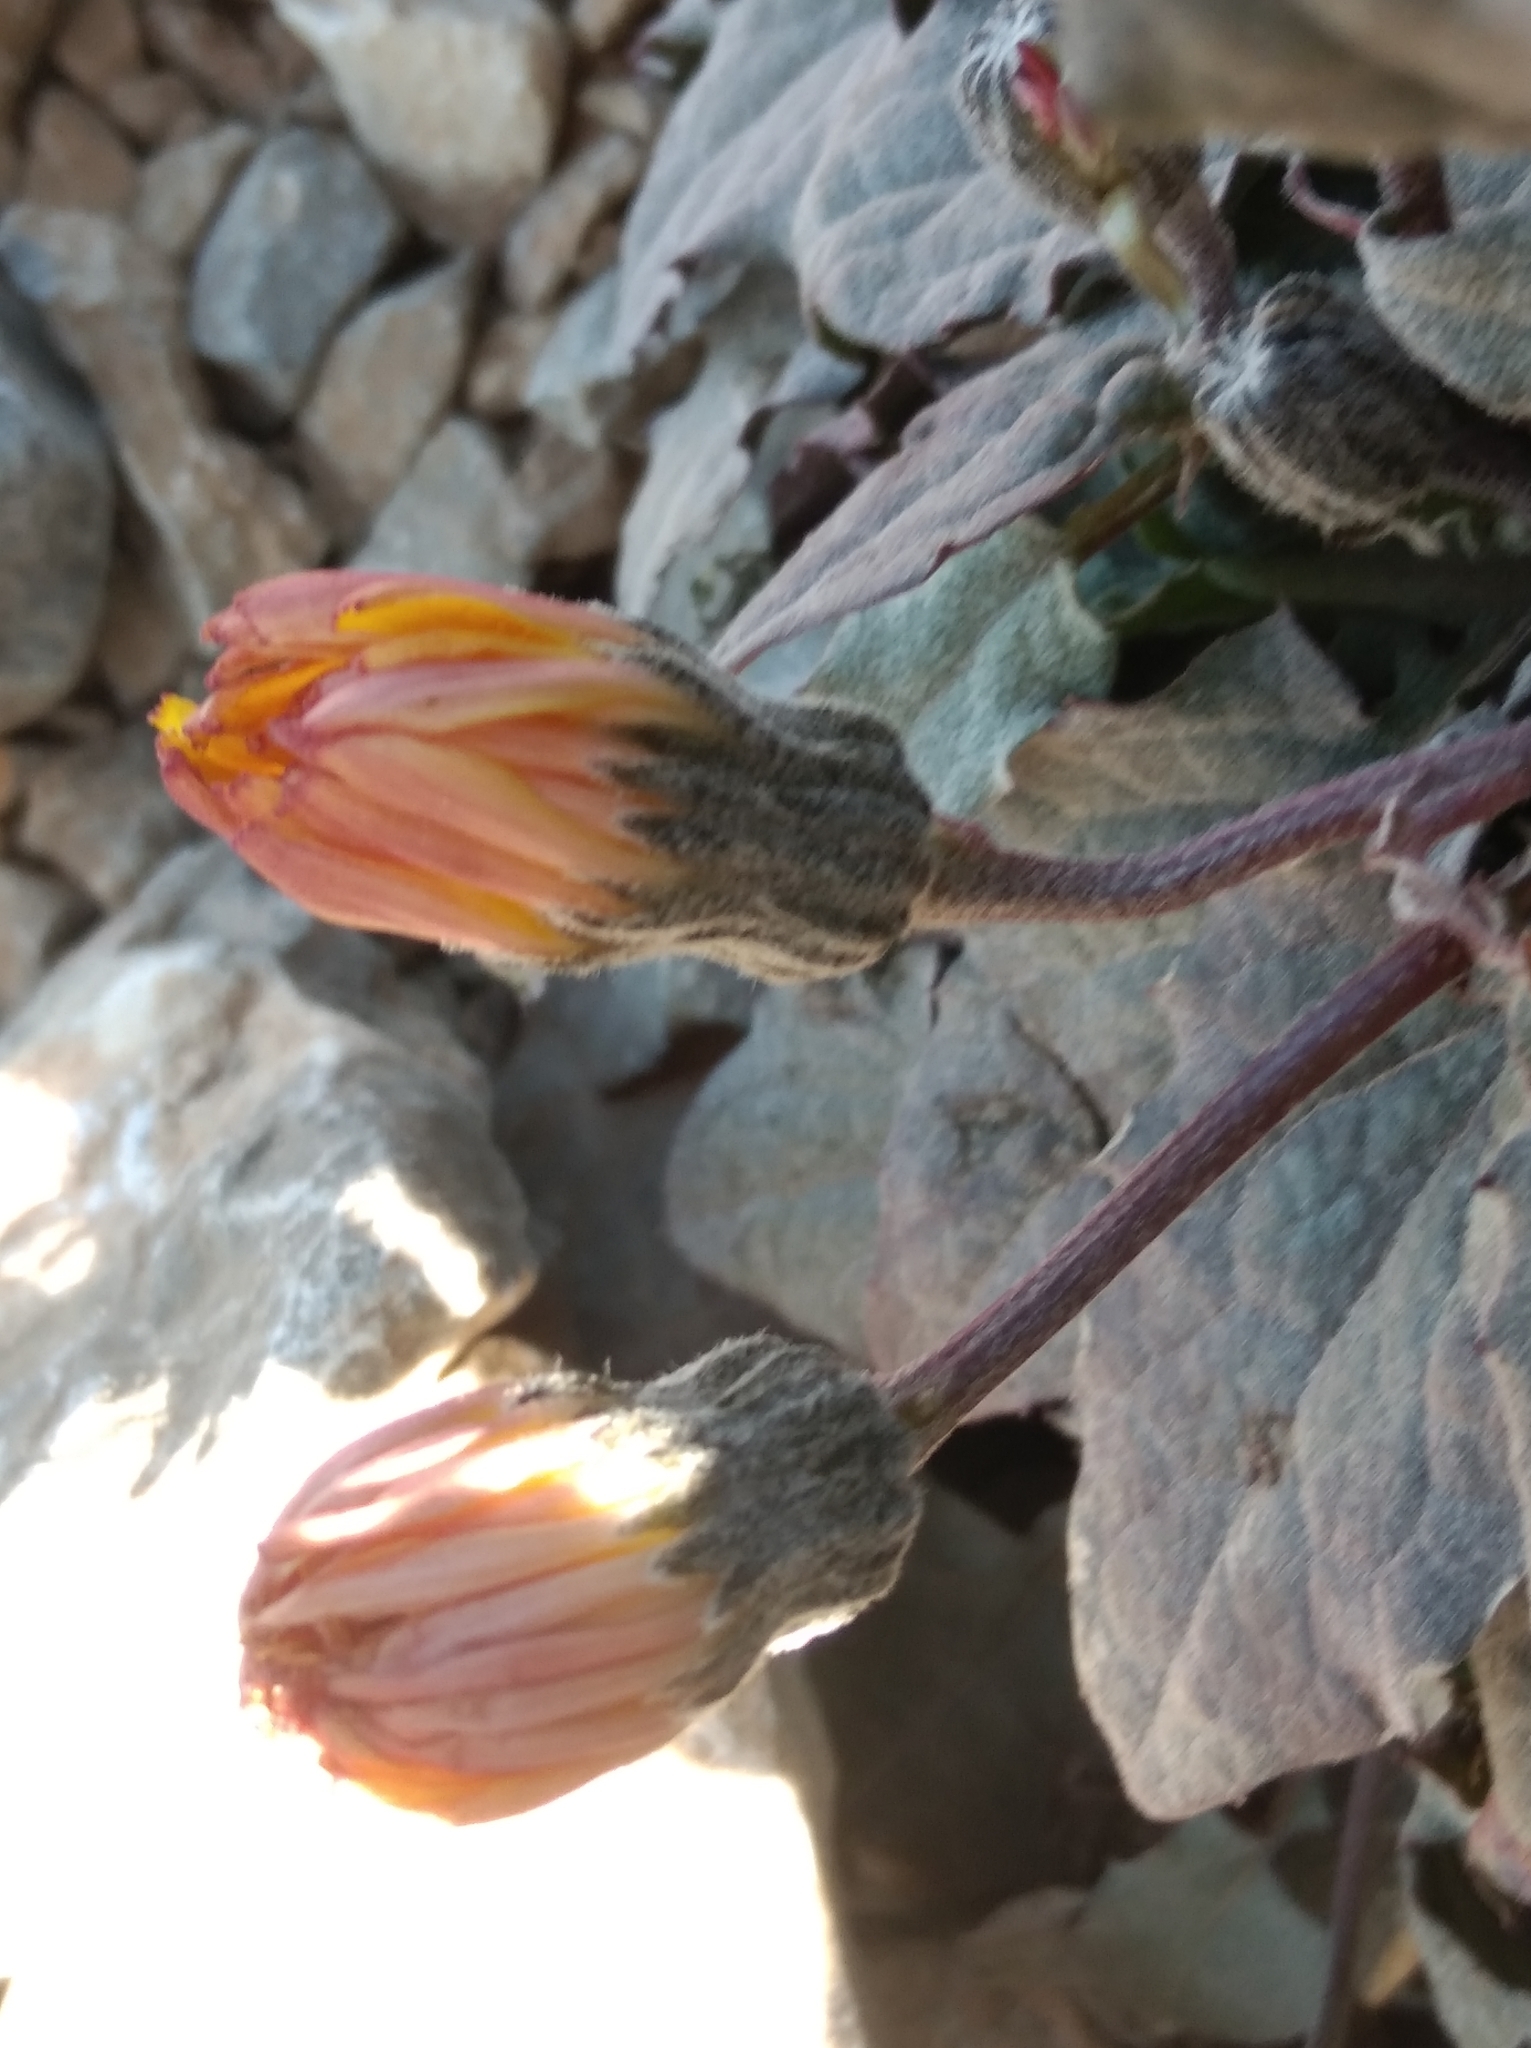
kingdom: Plantae
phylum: Tracheophyta
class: Magnoliopsida
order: Asterales
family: Asteraceae
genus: Crepis
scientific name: Crepis pygmaea
